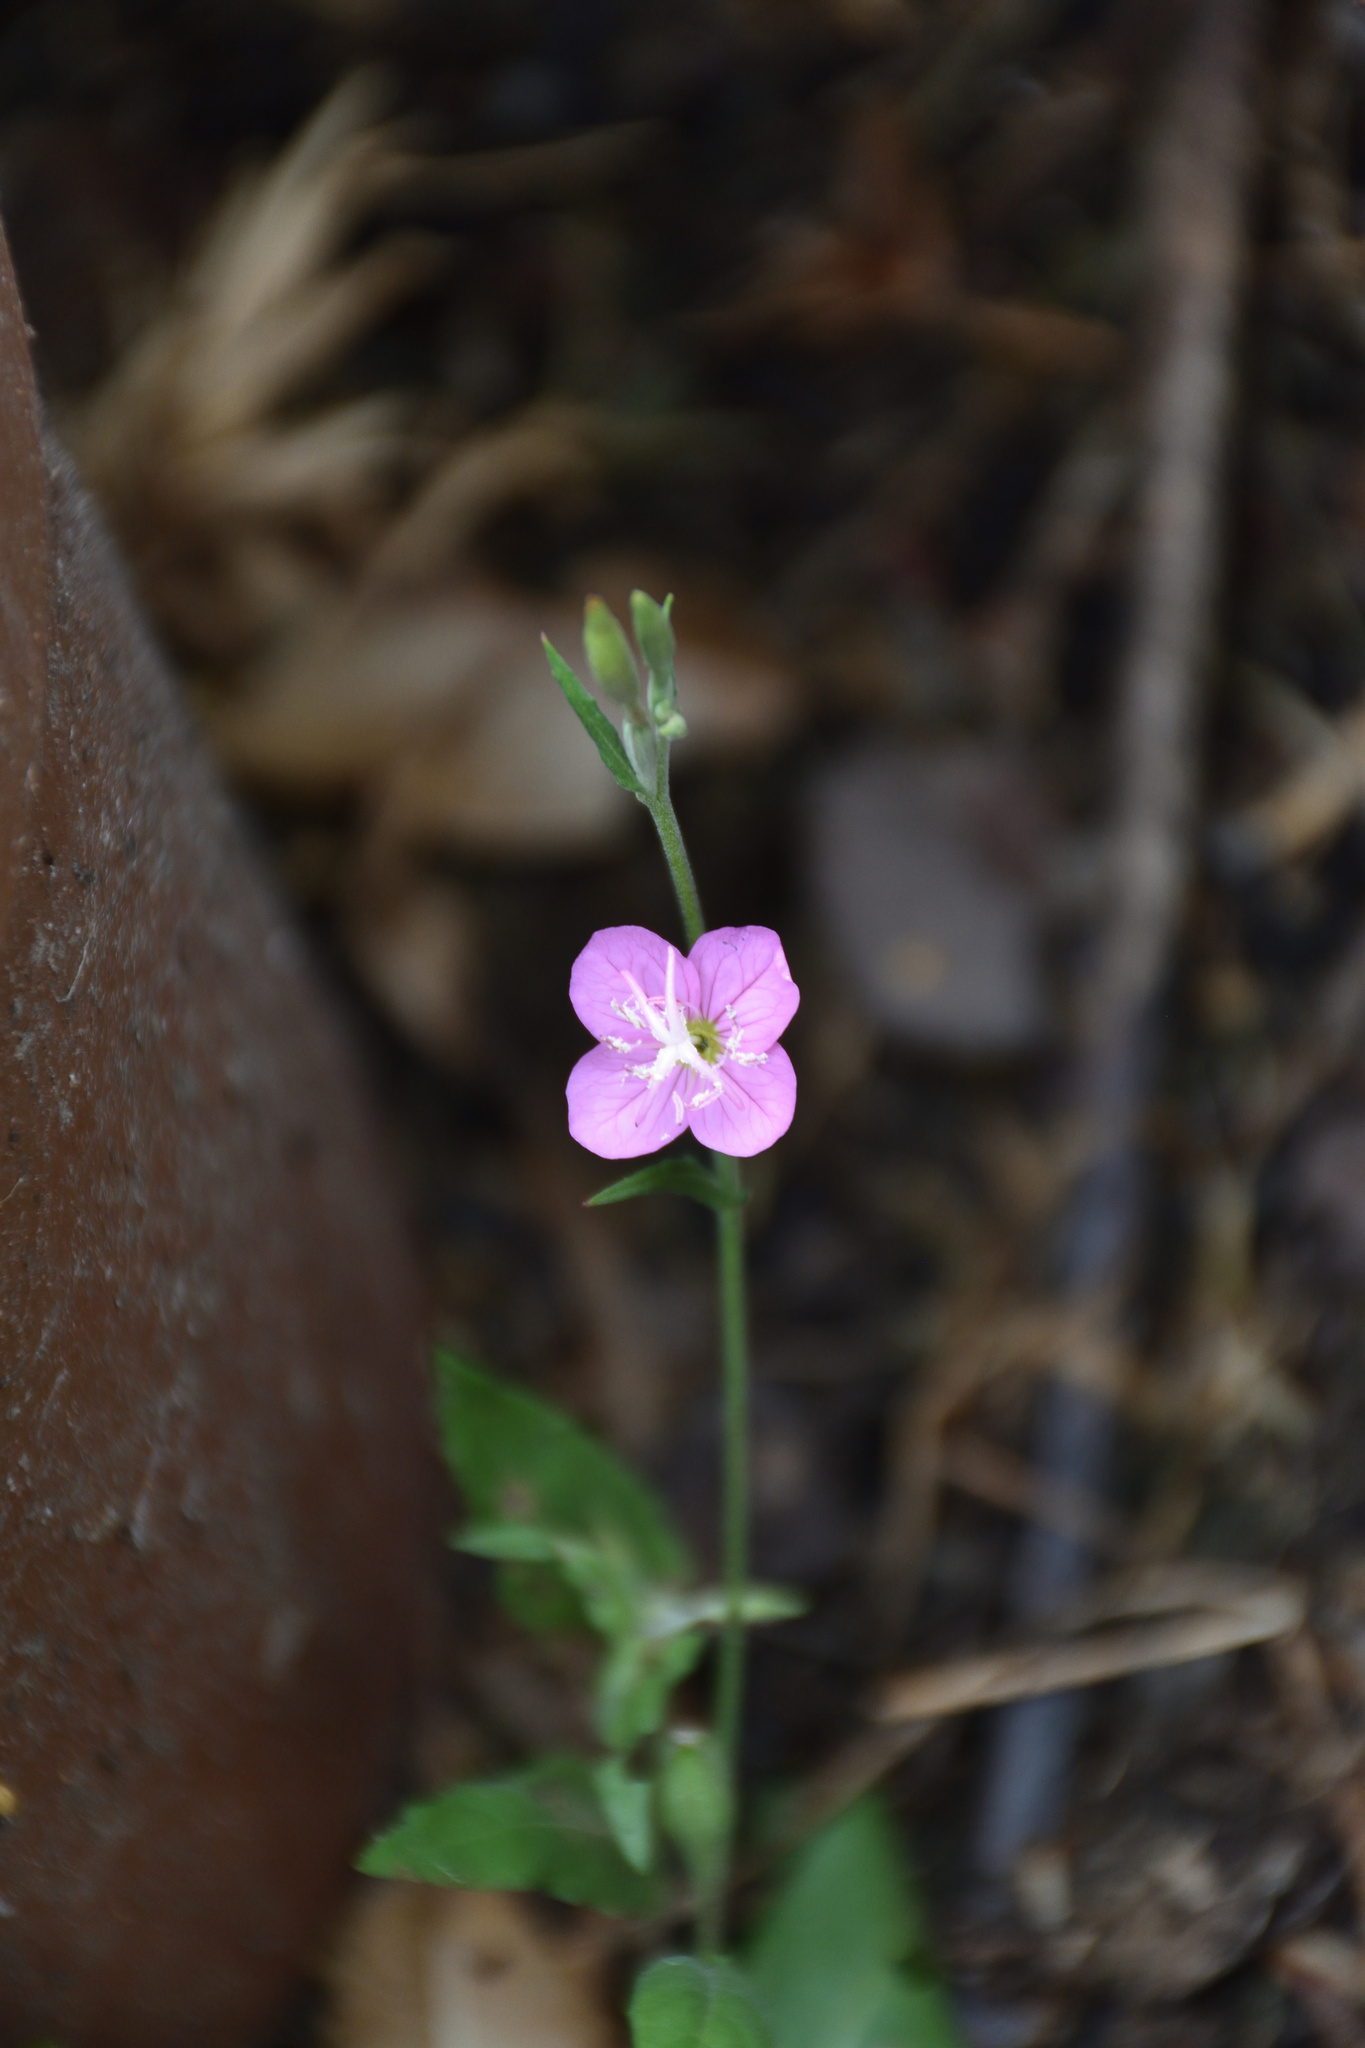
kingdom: Plantae
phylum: Tracheophyta
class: Magnoliopsida
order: Myrtales
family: Onagraceae
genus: Oenothera
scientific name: Oenothera rosea
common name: Rosy evening-primrose
